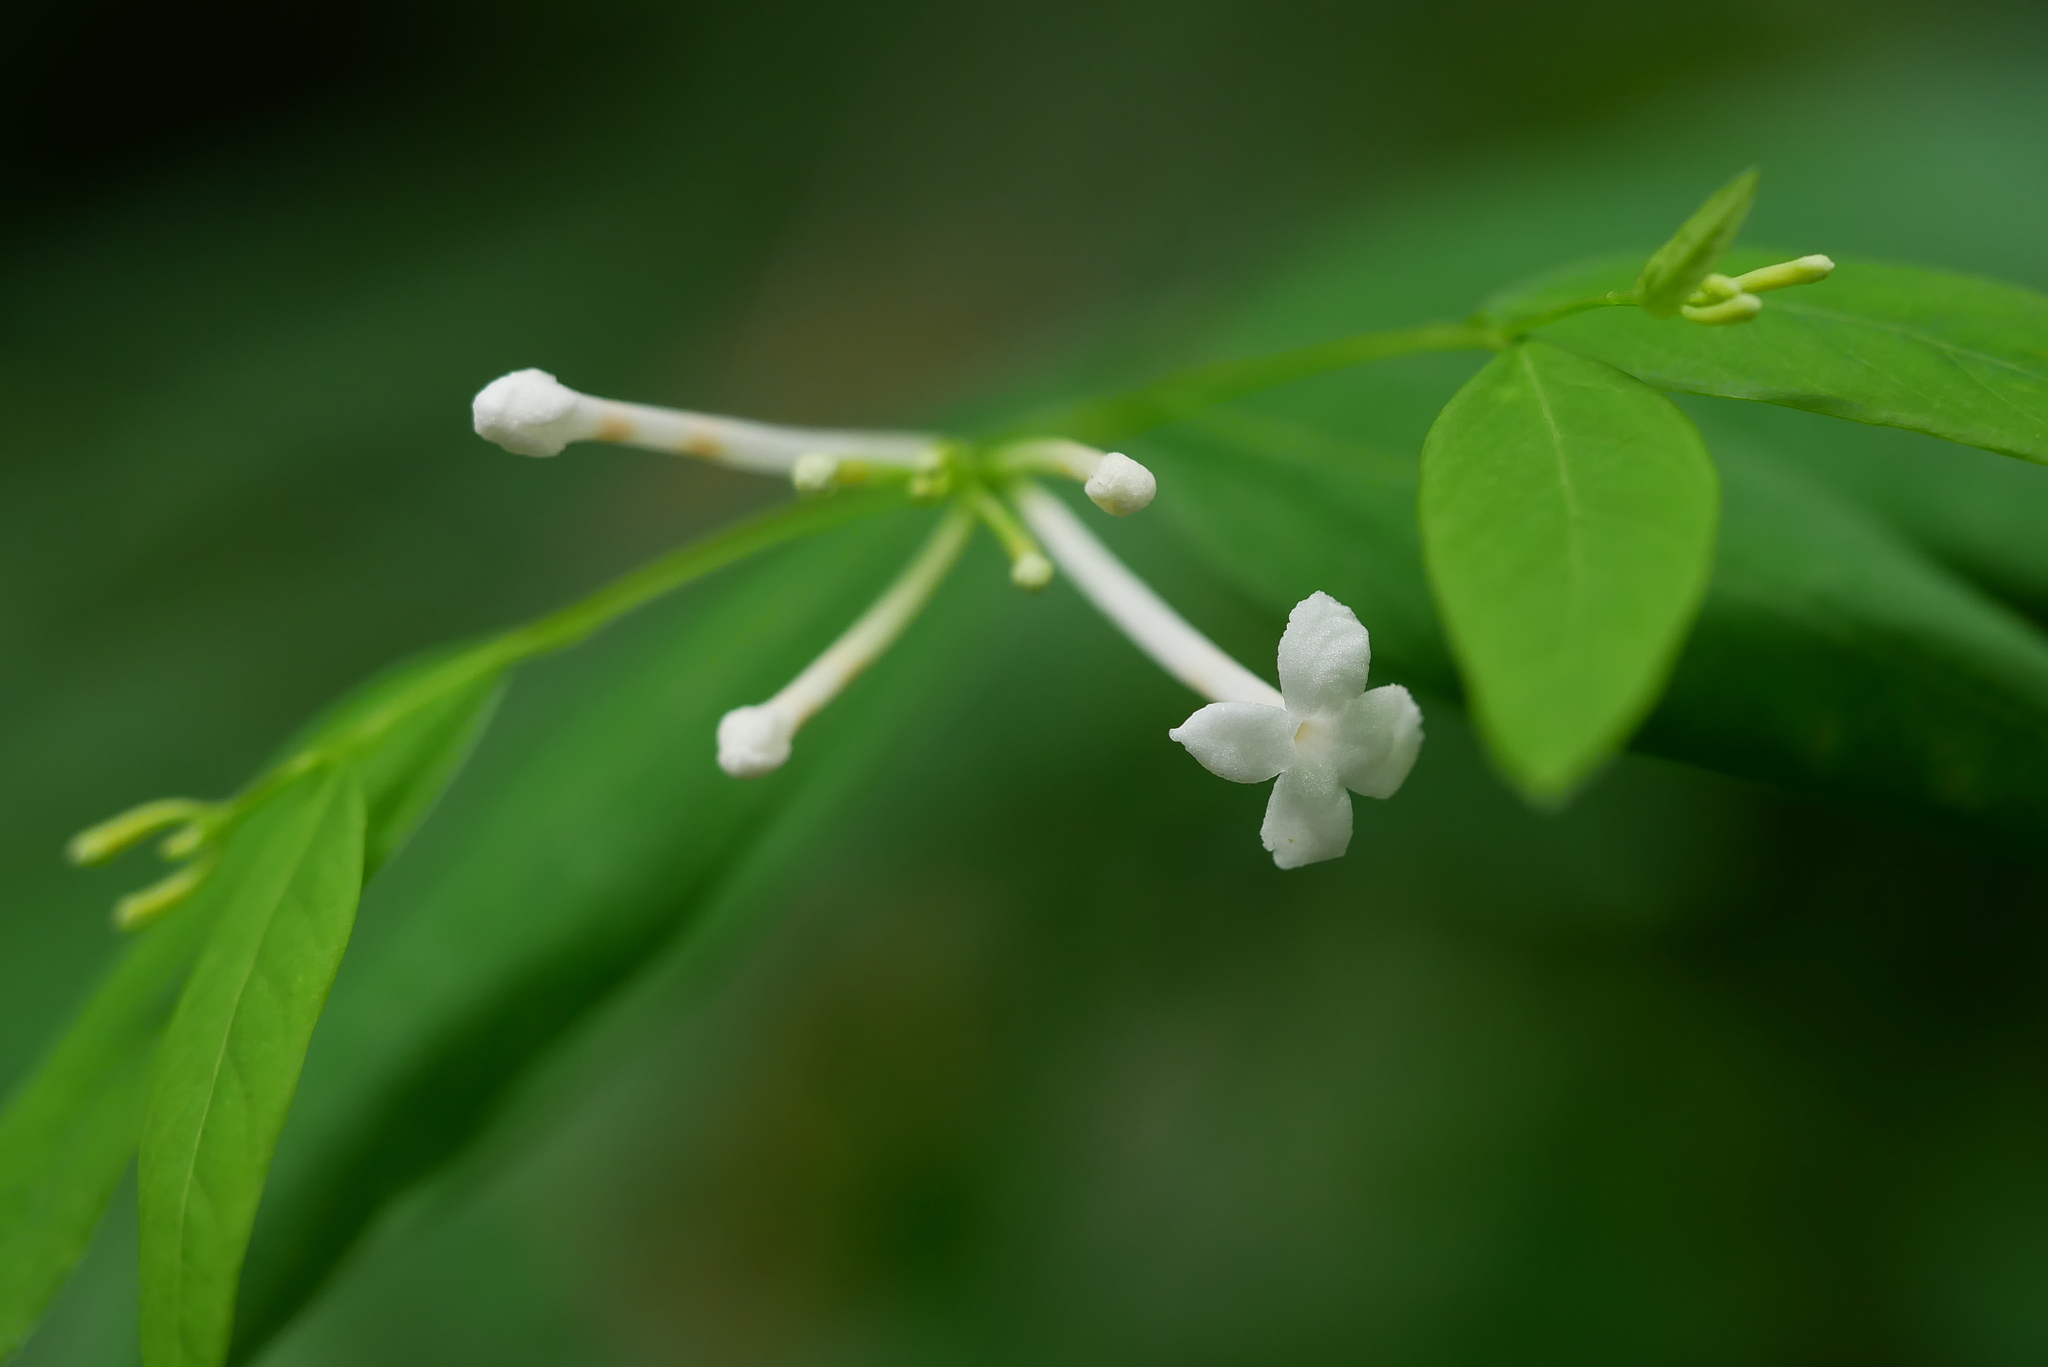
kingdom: Plantae
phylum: Tracheophyta
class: Magnoliopsida
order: Malvales
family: Thymelaeaceae
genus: Wikstroemia
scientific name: Wikstroemia mononectaria
